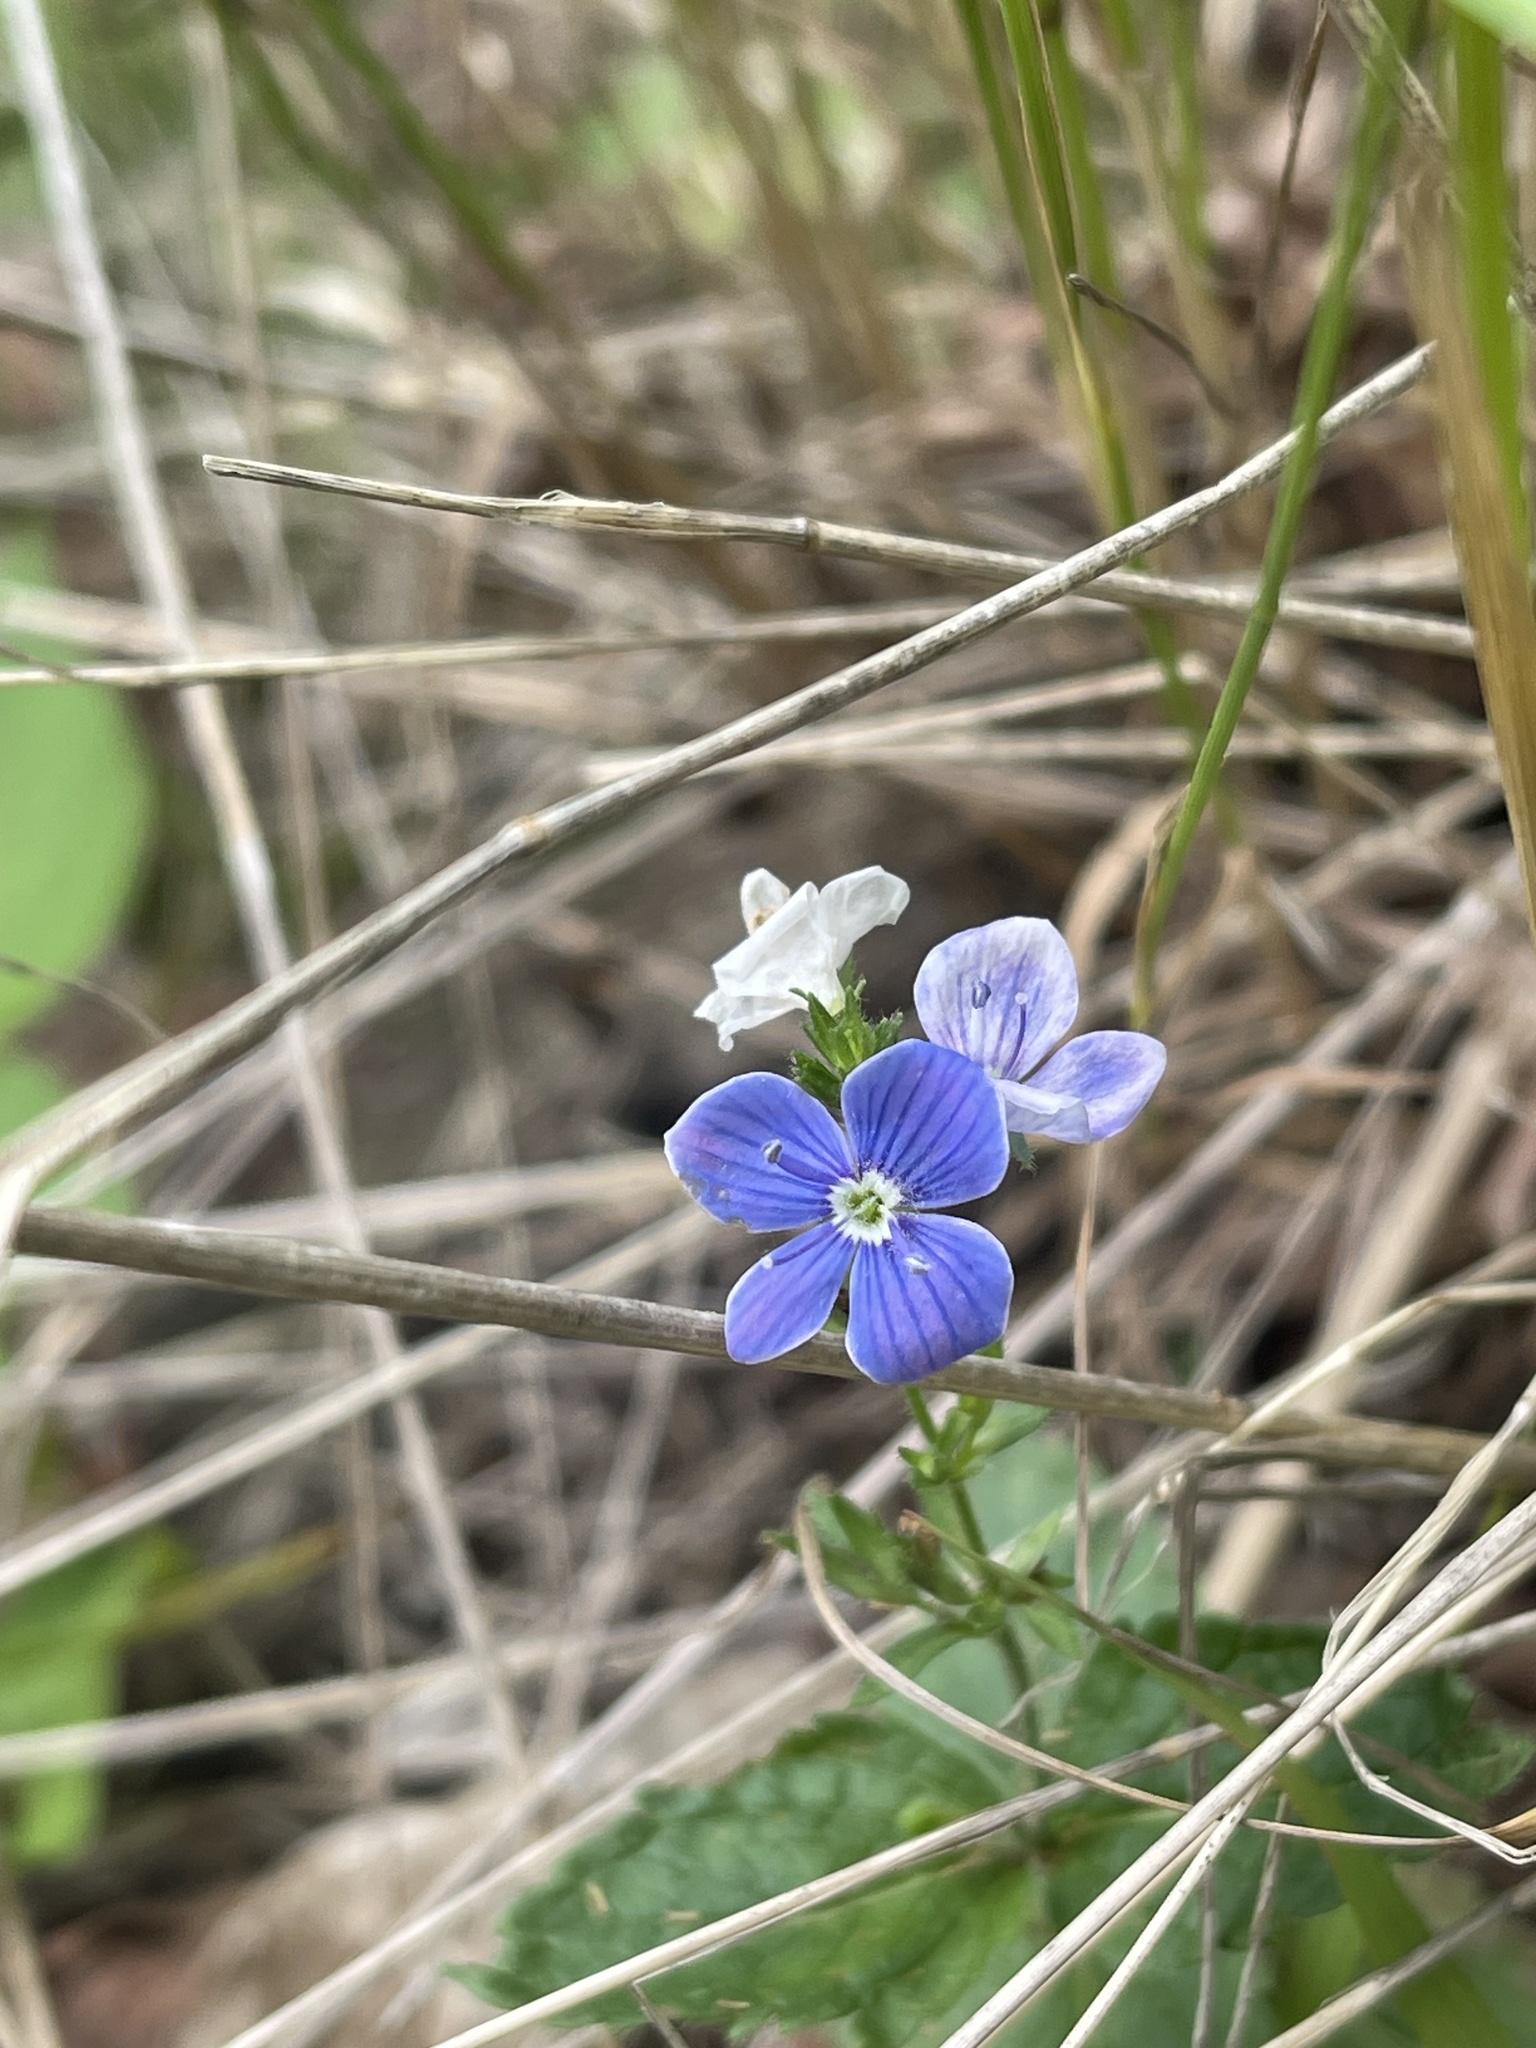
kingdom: Plantae
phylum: Tracheophyta
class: Magnoliopsida
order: Lamiales
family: Plantaginaceae
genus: Veronica
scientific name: Veronica chamaedrys
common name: Germander speedwell
